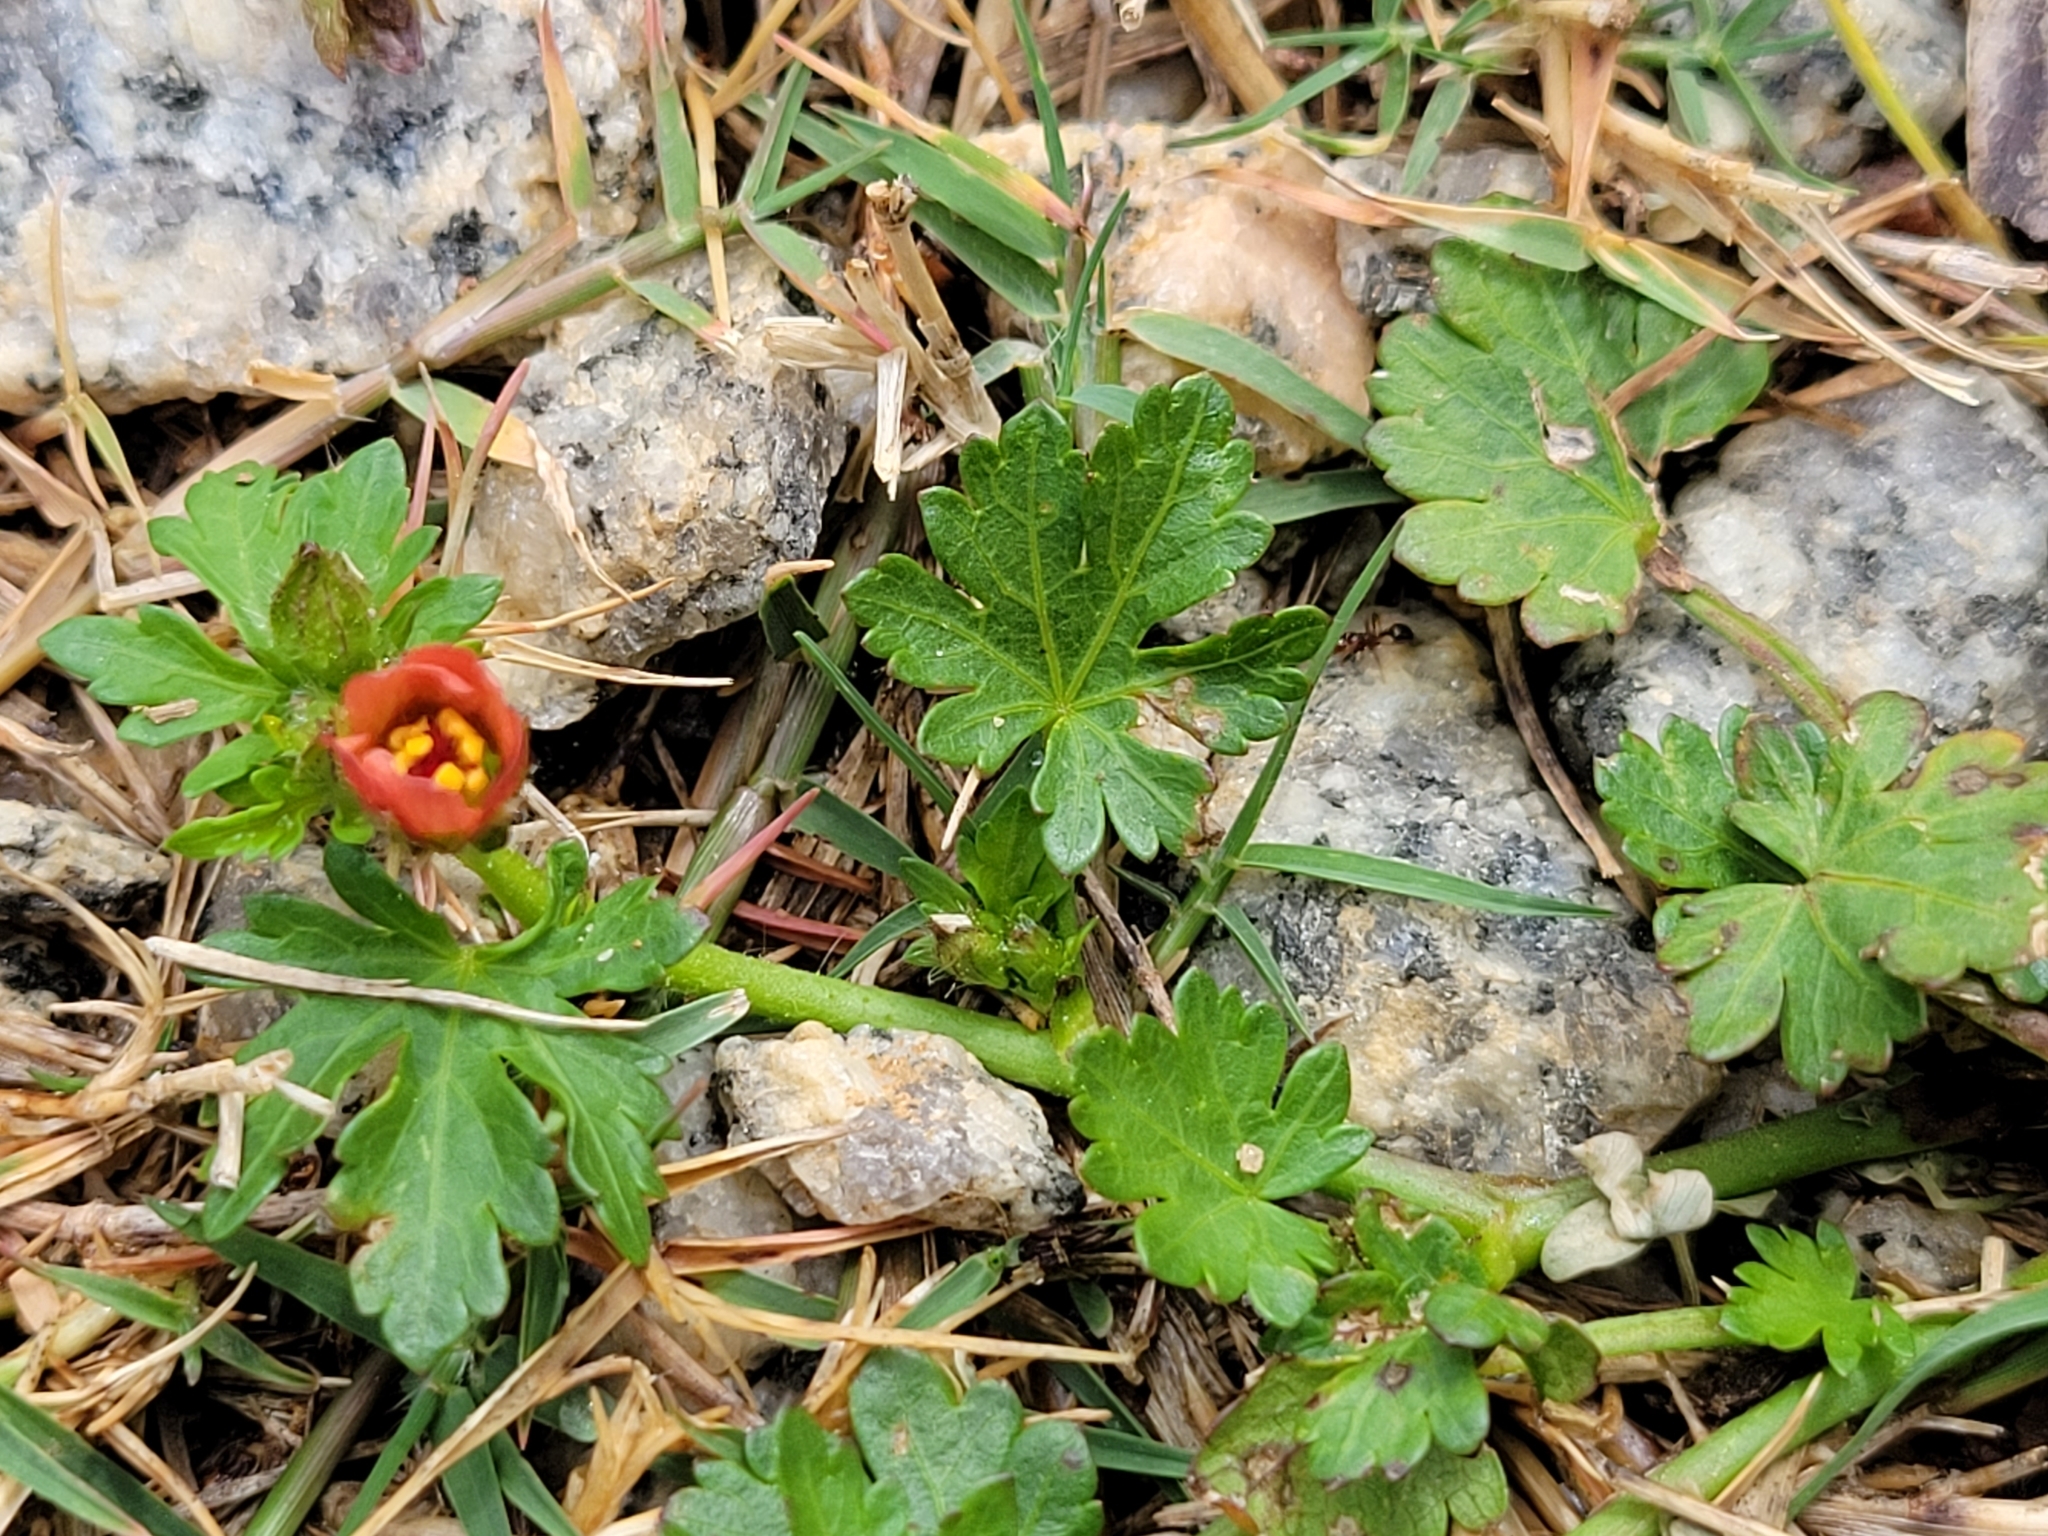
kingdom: Plantae
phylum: Tracheophyta
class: Magnoliopsida
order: Malvales
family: Malvaceae
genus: Modiola
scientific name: Modiola caroliniana
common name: Carolina bristlemallow
